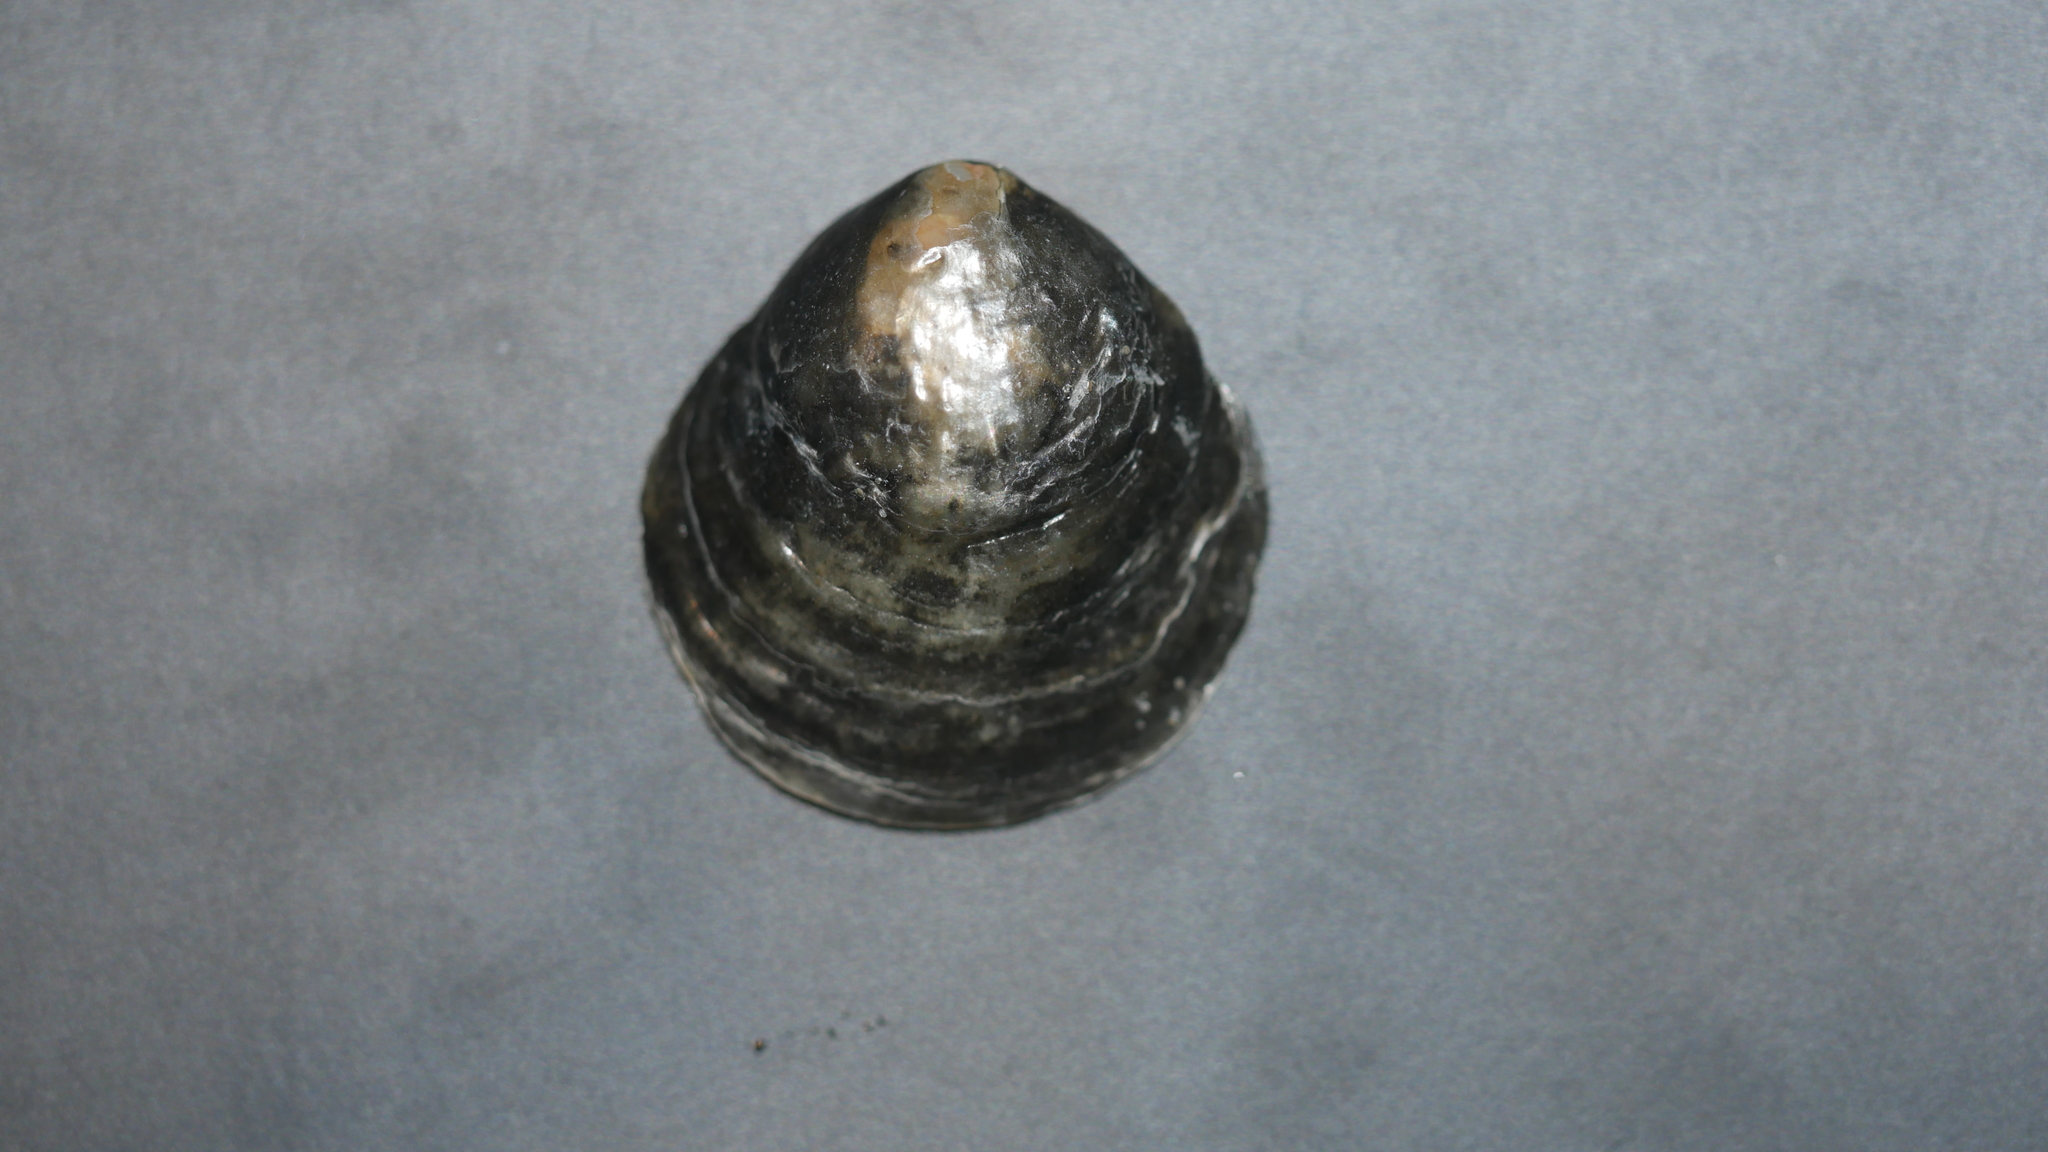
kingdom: Animalia
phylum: Mollusca
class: Bivalvia
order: Pectinida
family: Anomiidae
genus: Anomia
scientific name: Anomia simplex
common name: Common jingle shell
